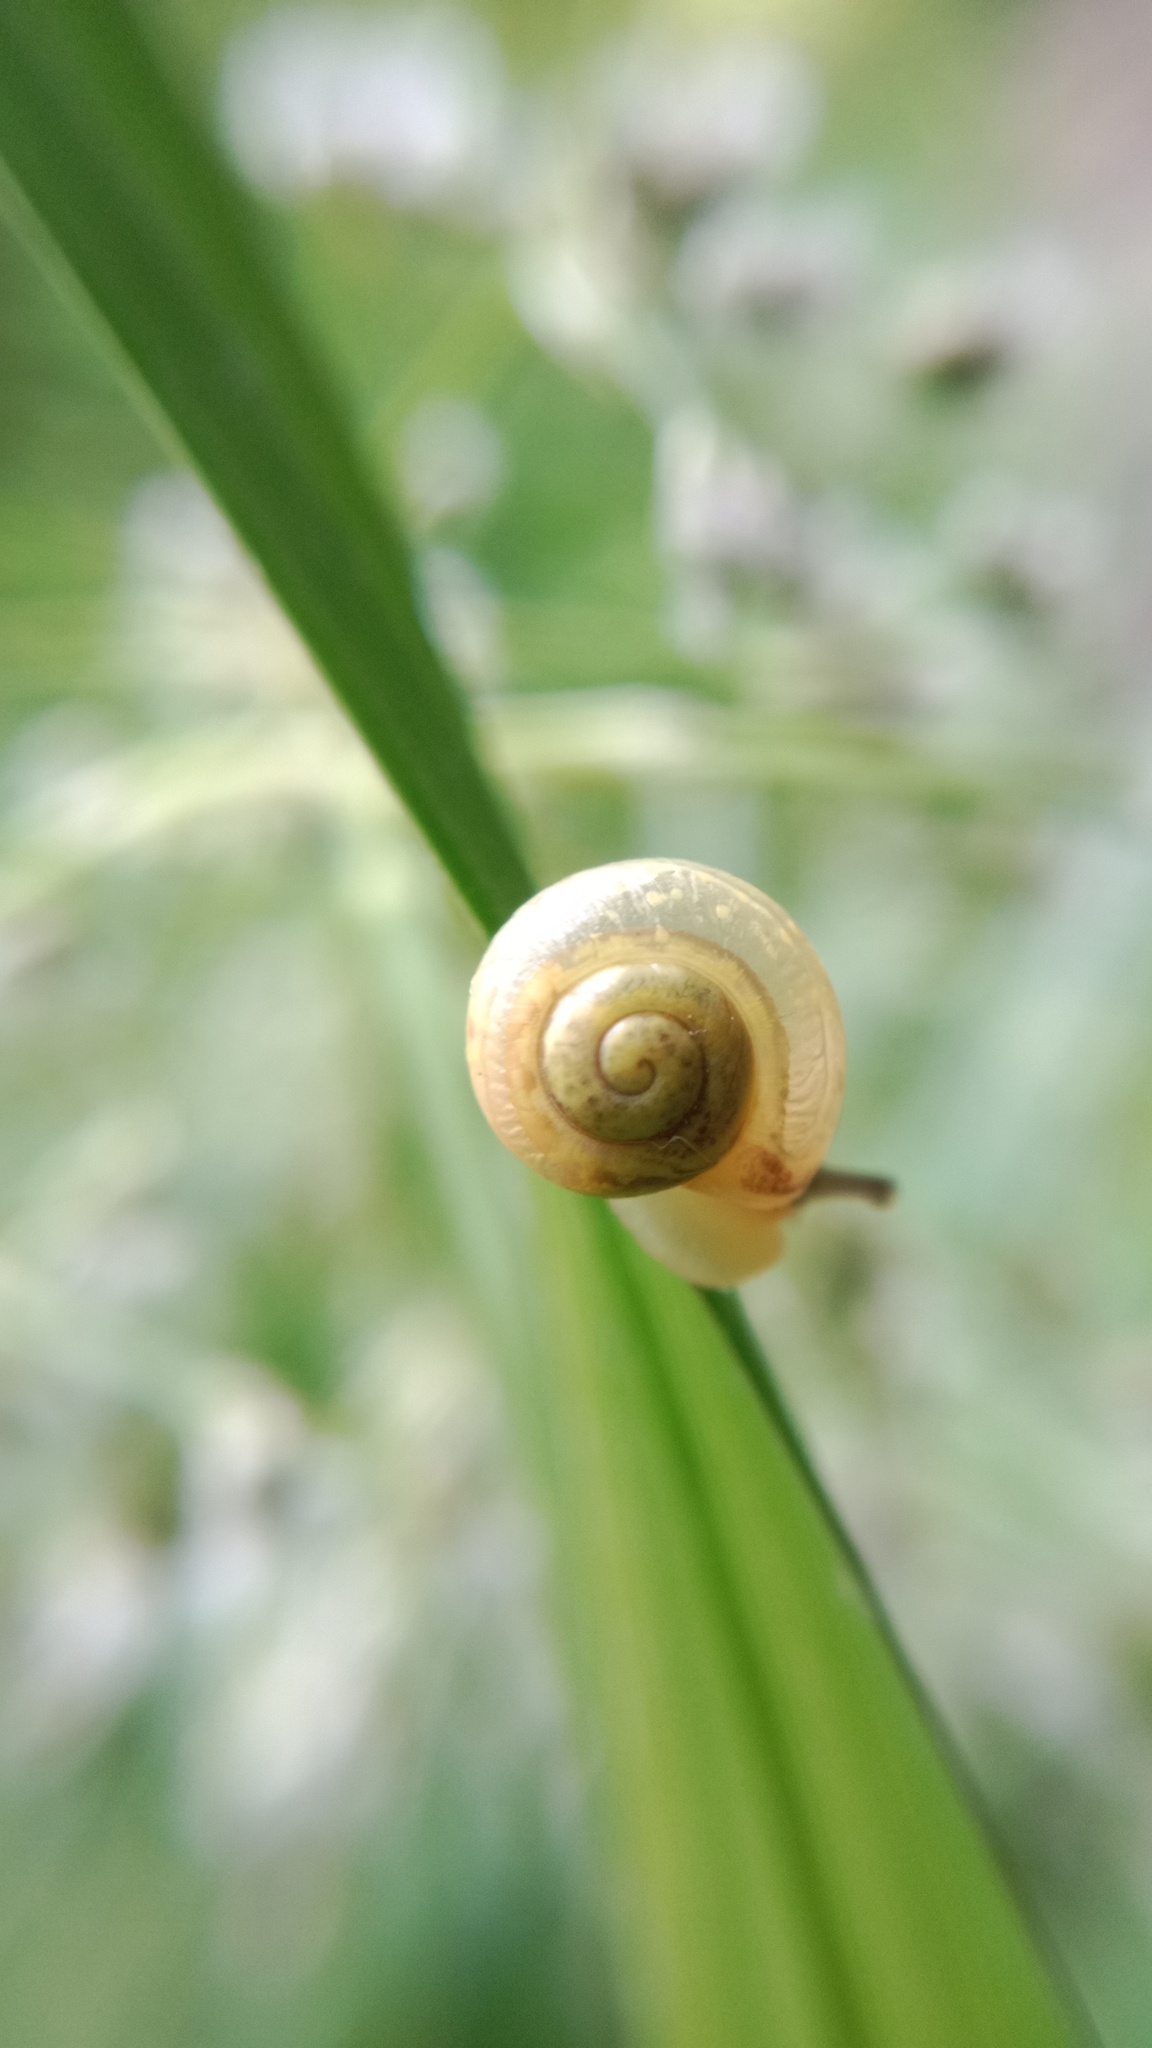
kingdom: Animalia
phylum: Mollusca
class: Gastropoda
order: Stylommatophora
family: Camaenidae
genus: Fruticicola
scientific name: Fruticicola fruticum
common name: Bush snail
